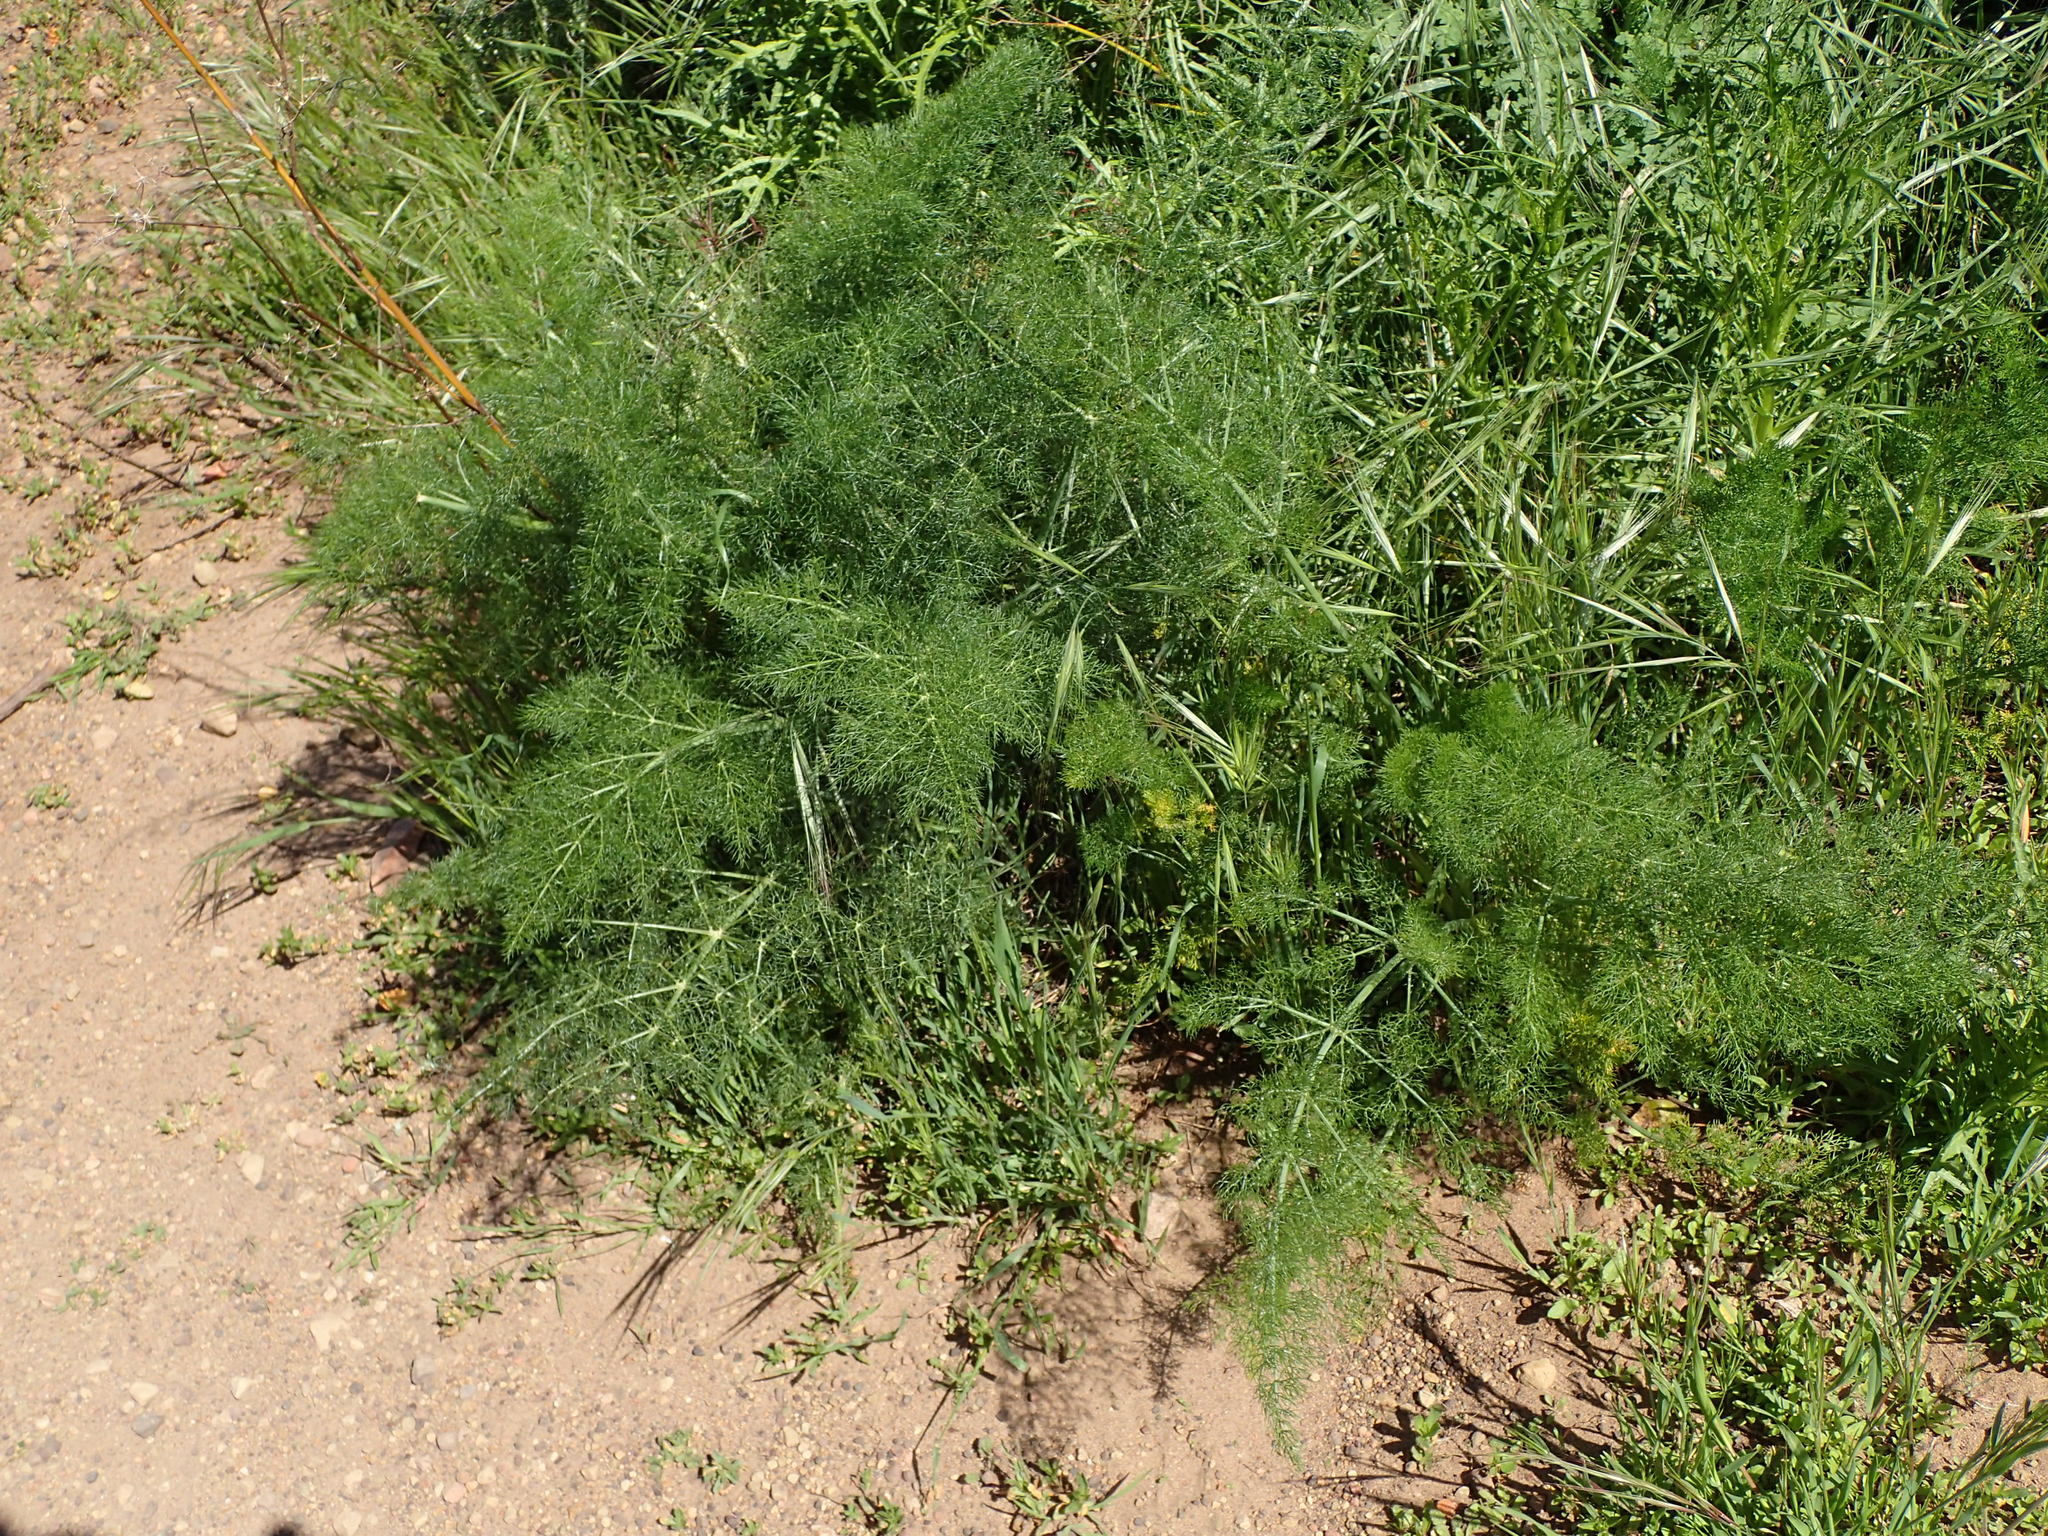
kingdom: Plantae
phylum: Tracheophyta
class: Magnoliopsida
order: Apiales
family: Apiaceae
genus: Foeniculum
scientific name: Foeniculum vulgare
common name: Fennel
